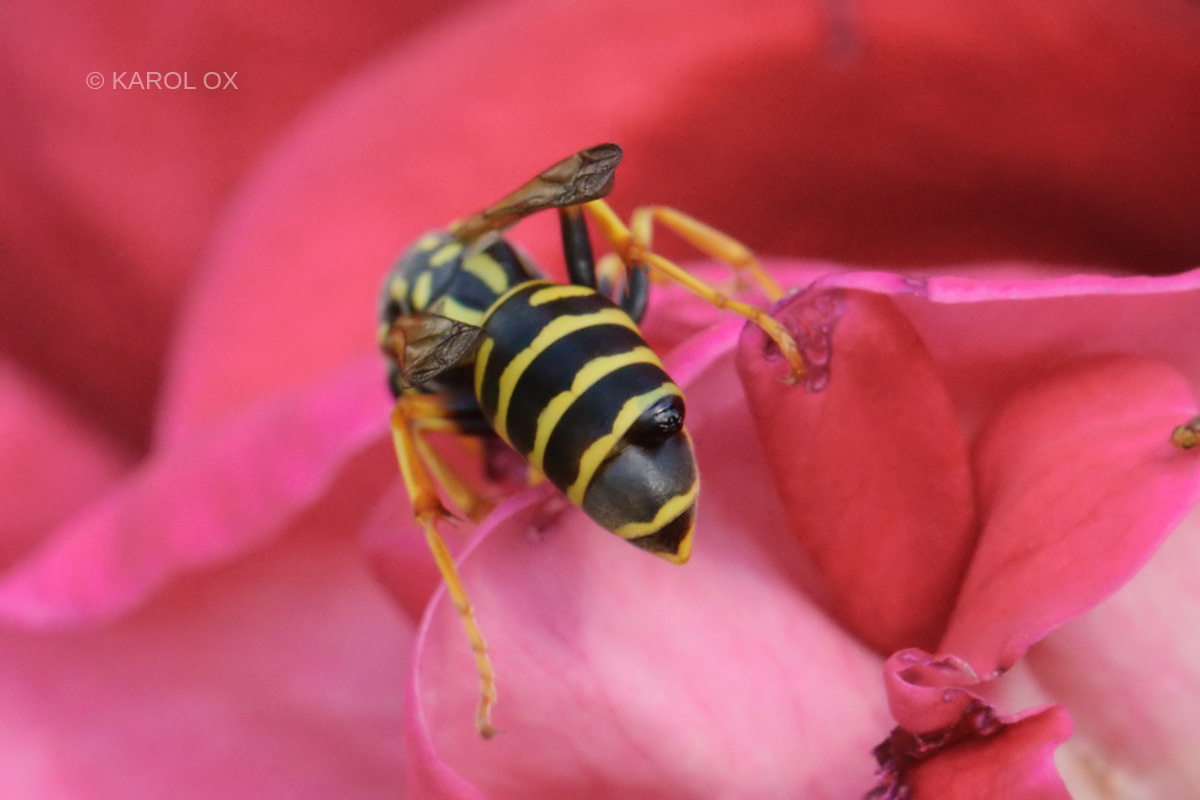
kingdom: Animalia
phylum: Arthropoda
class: Insecta
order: Hymenoptera
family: Eumenidae
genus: Polistes
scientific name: Polistes dominula
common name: Paper wasp
